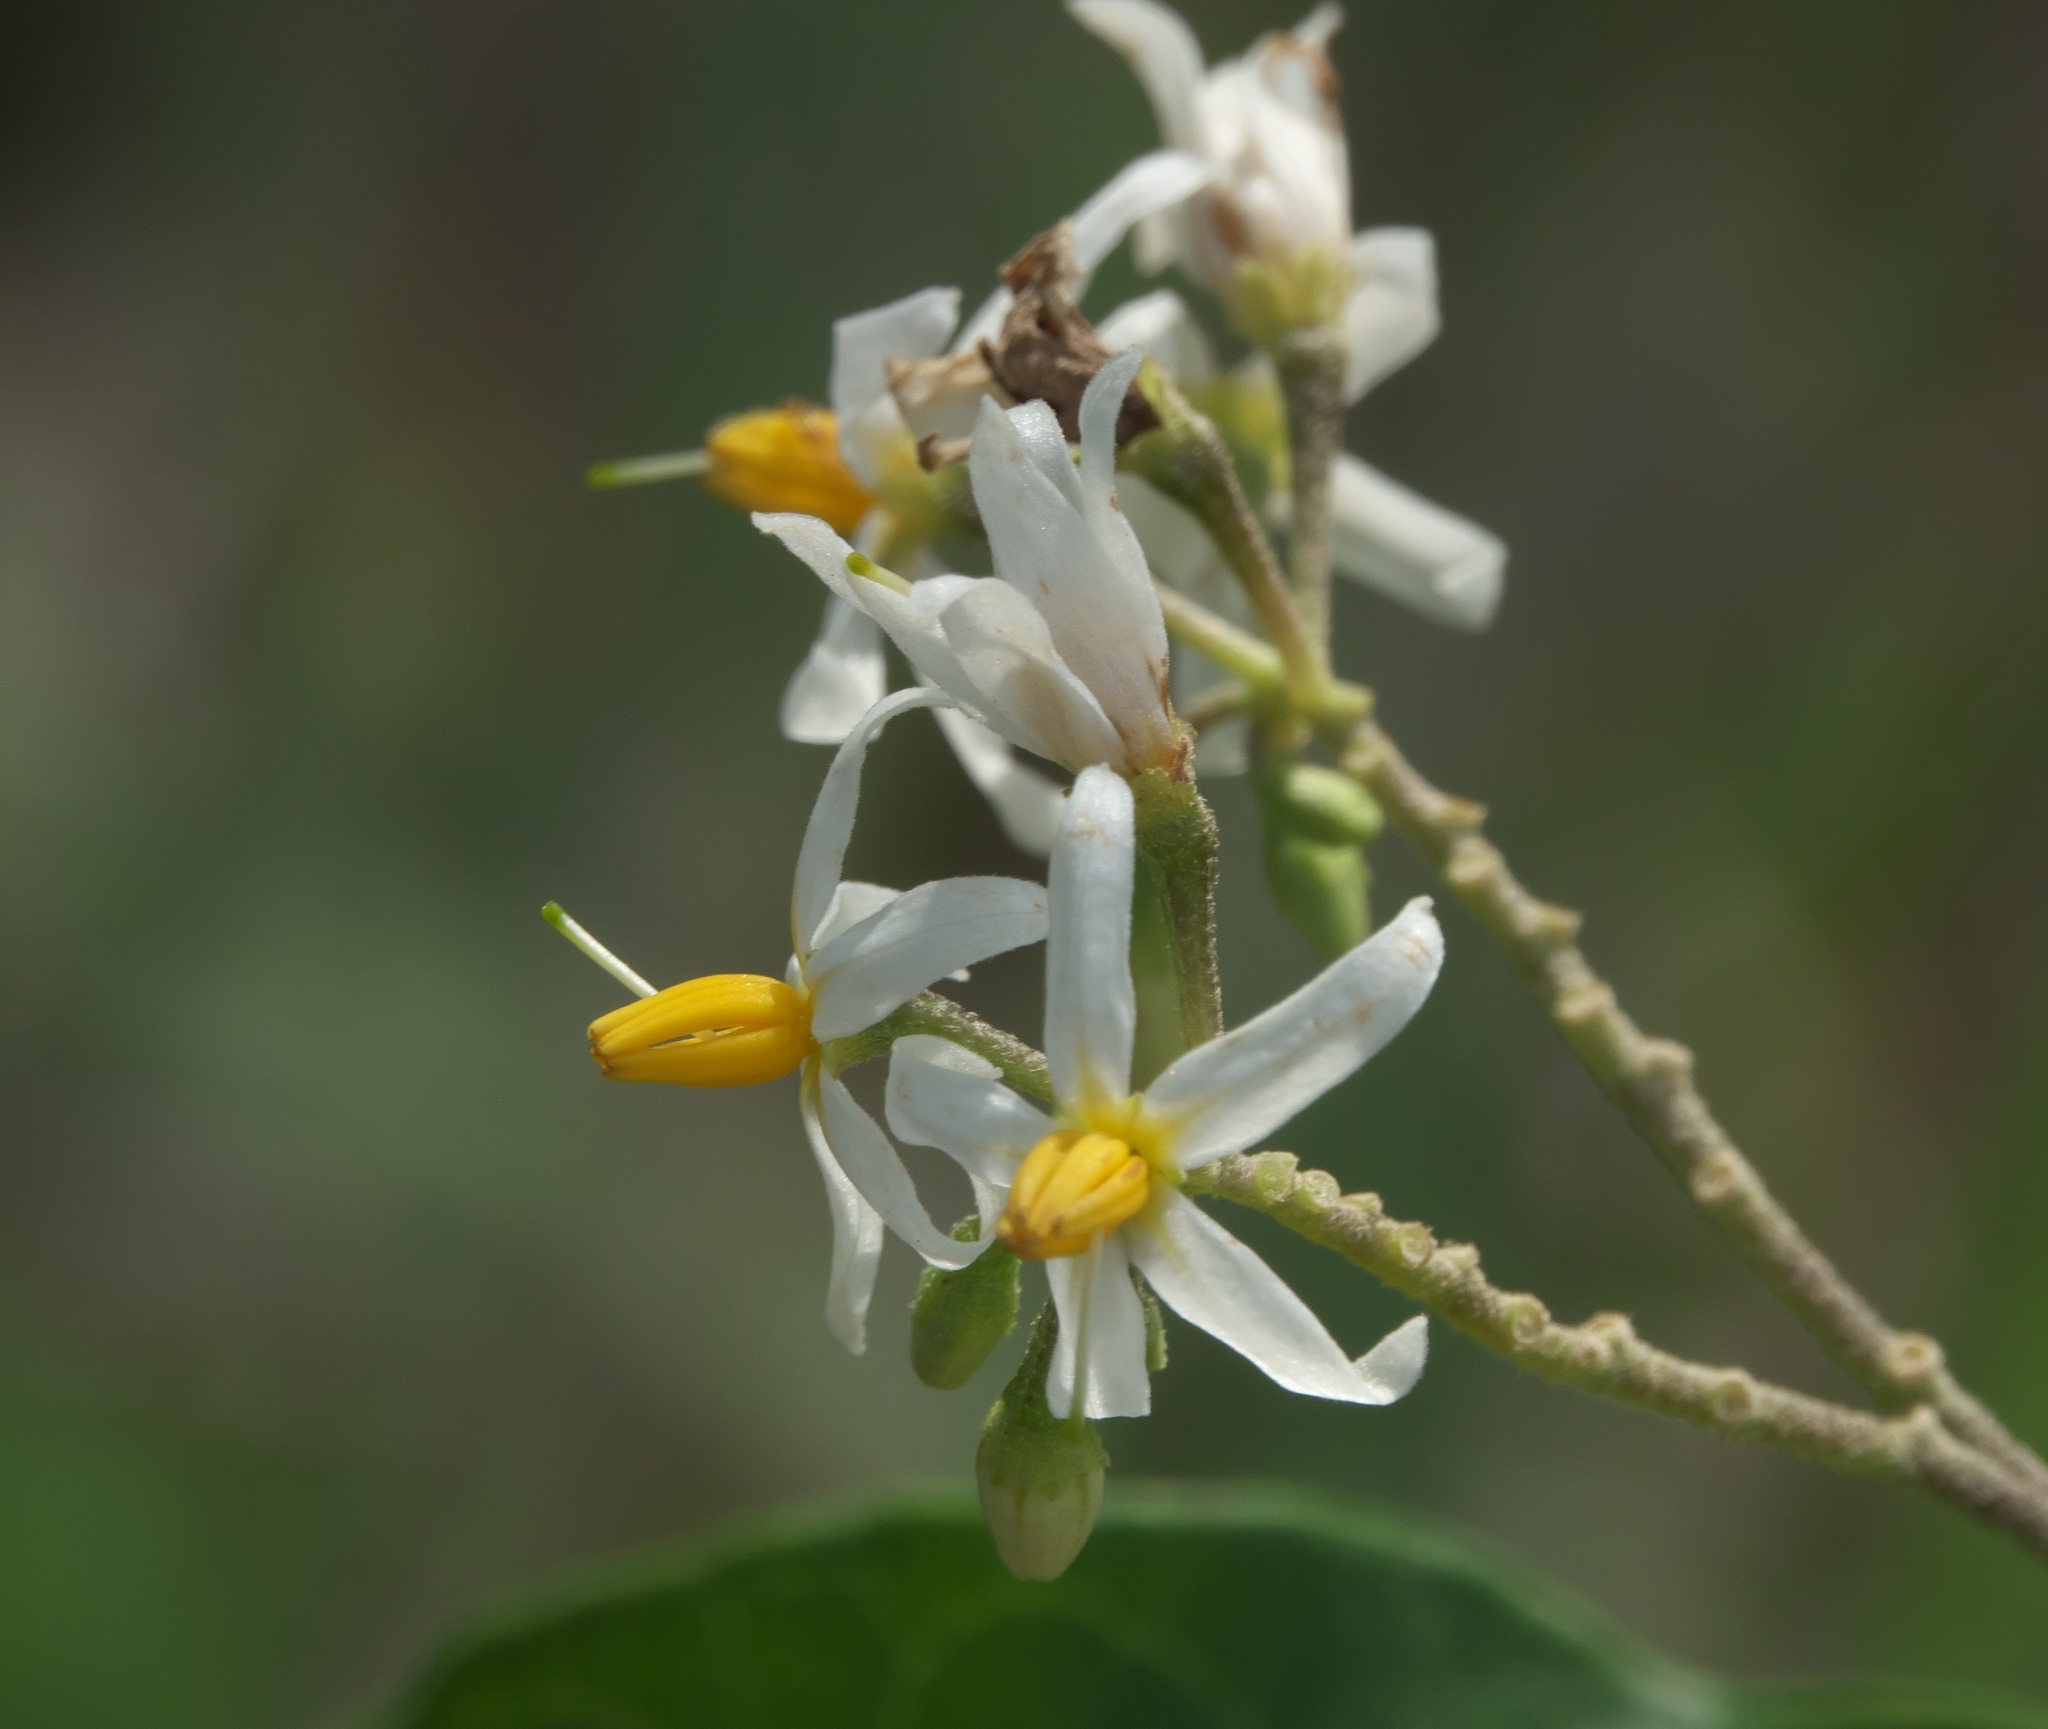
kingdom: Plantae
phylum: Tracheophyta
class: Magnoliopsida
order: Solanales
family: Solanaceae
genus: Solanum
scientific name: Solanum donianum
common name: Mullein nightshade
